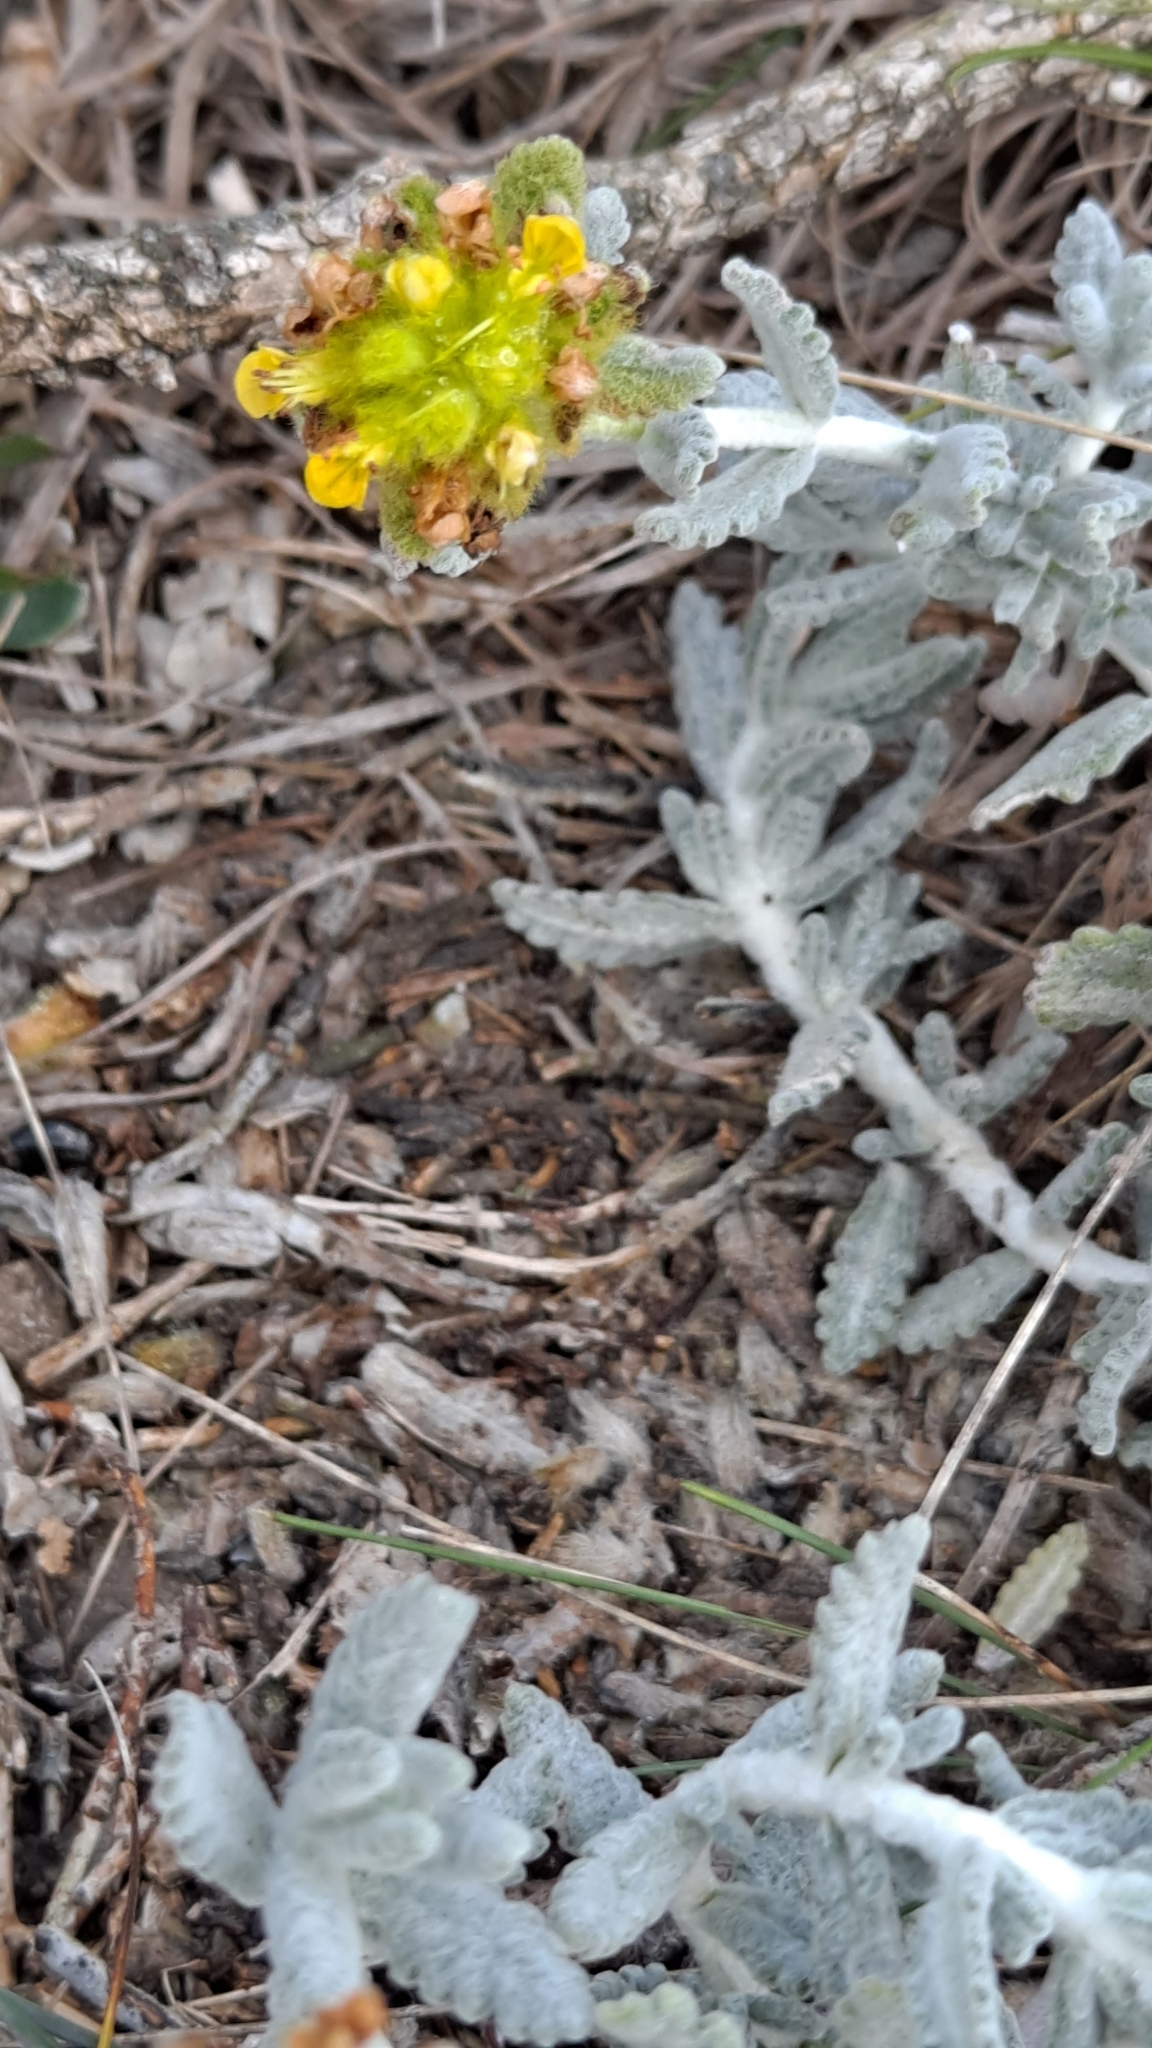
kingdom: Plantae
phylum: Tracheophyta
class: Magnoliopsida
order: Lamiales
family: Lamiaceae
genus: Teucrium
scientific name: Teucrium polium
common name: Poley
